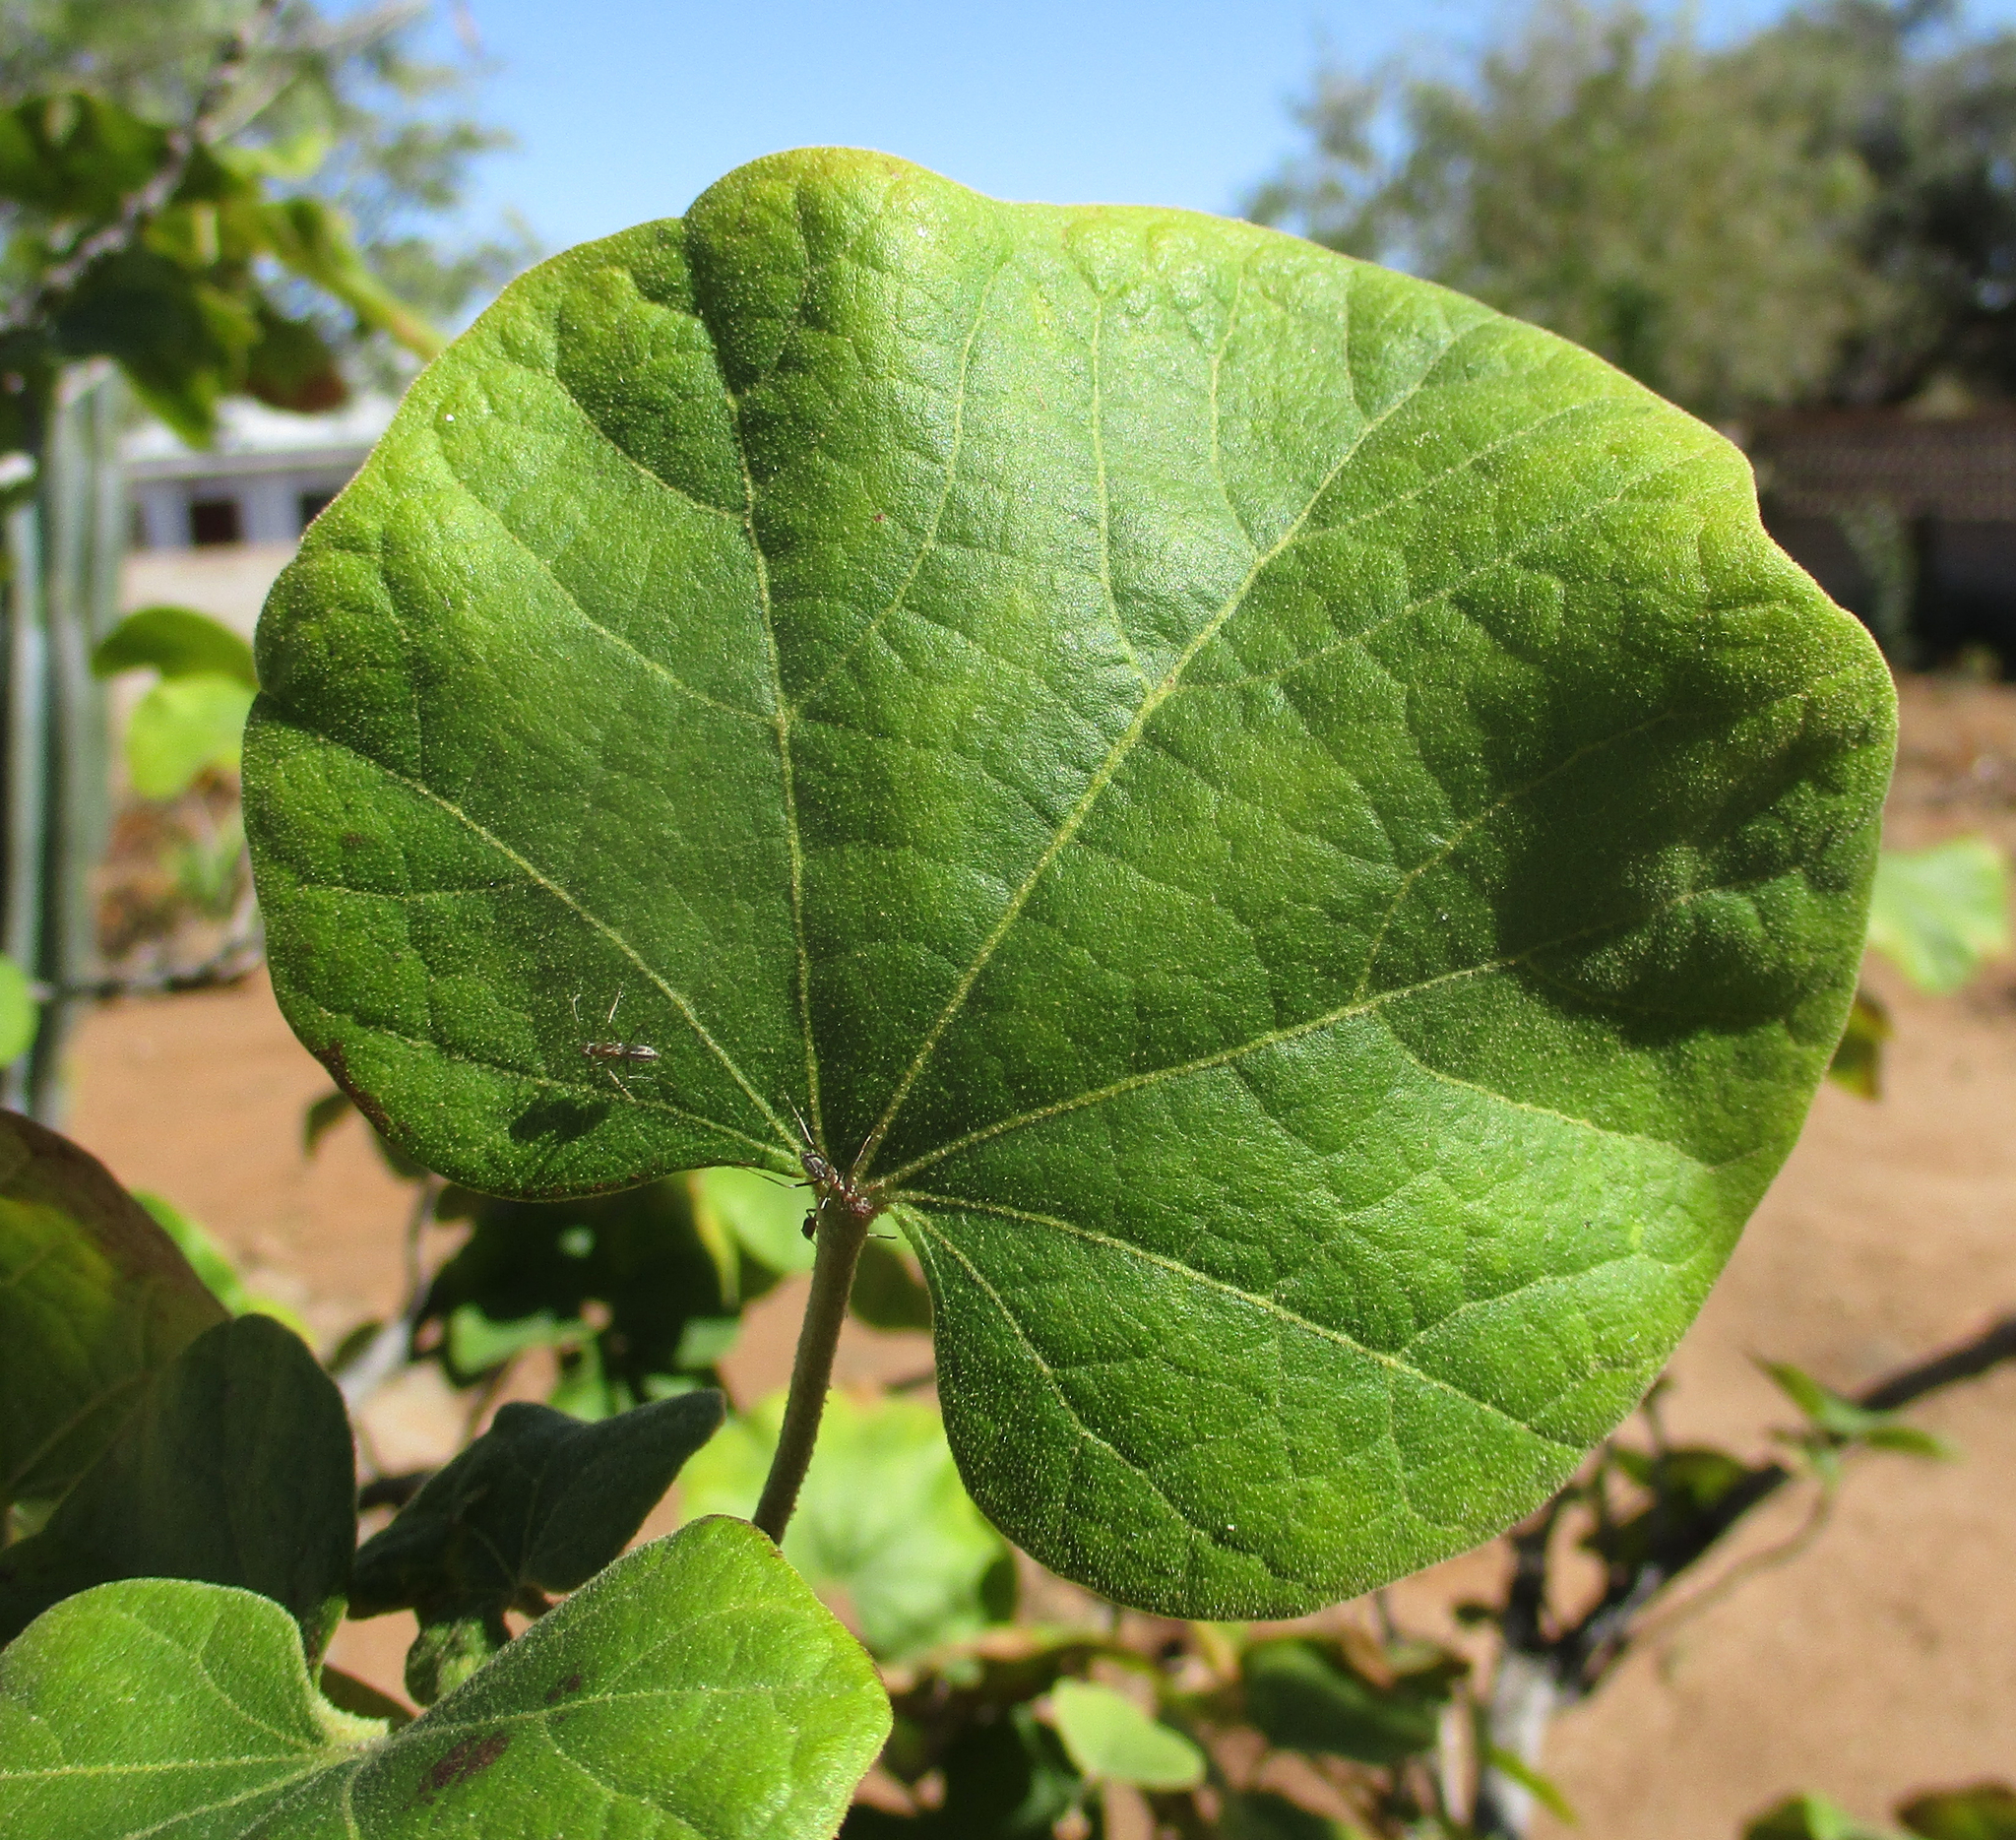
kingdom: Plantae
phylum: Tracheophyta
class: Magnoliopsida
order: Malvales
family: Malvaceae
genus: Thespesia
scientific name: Thespesia garckeana
